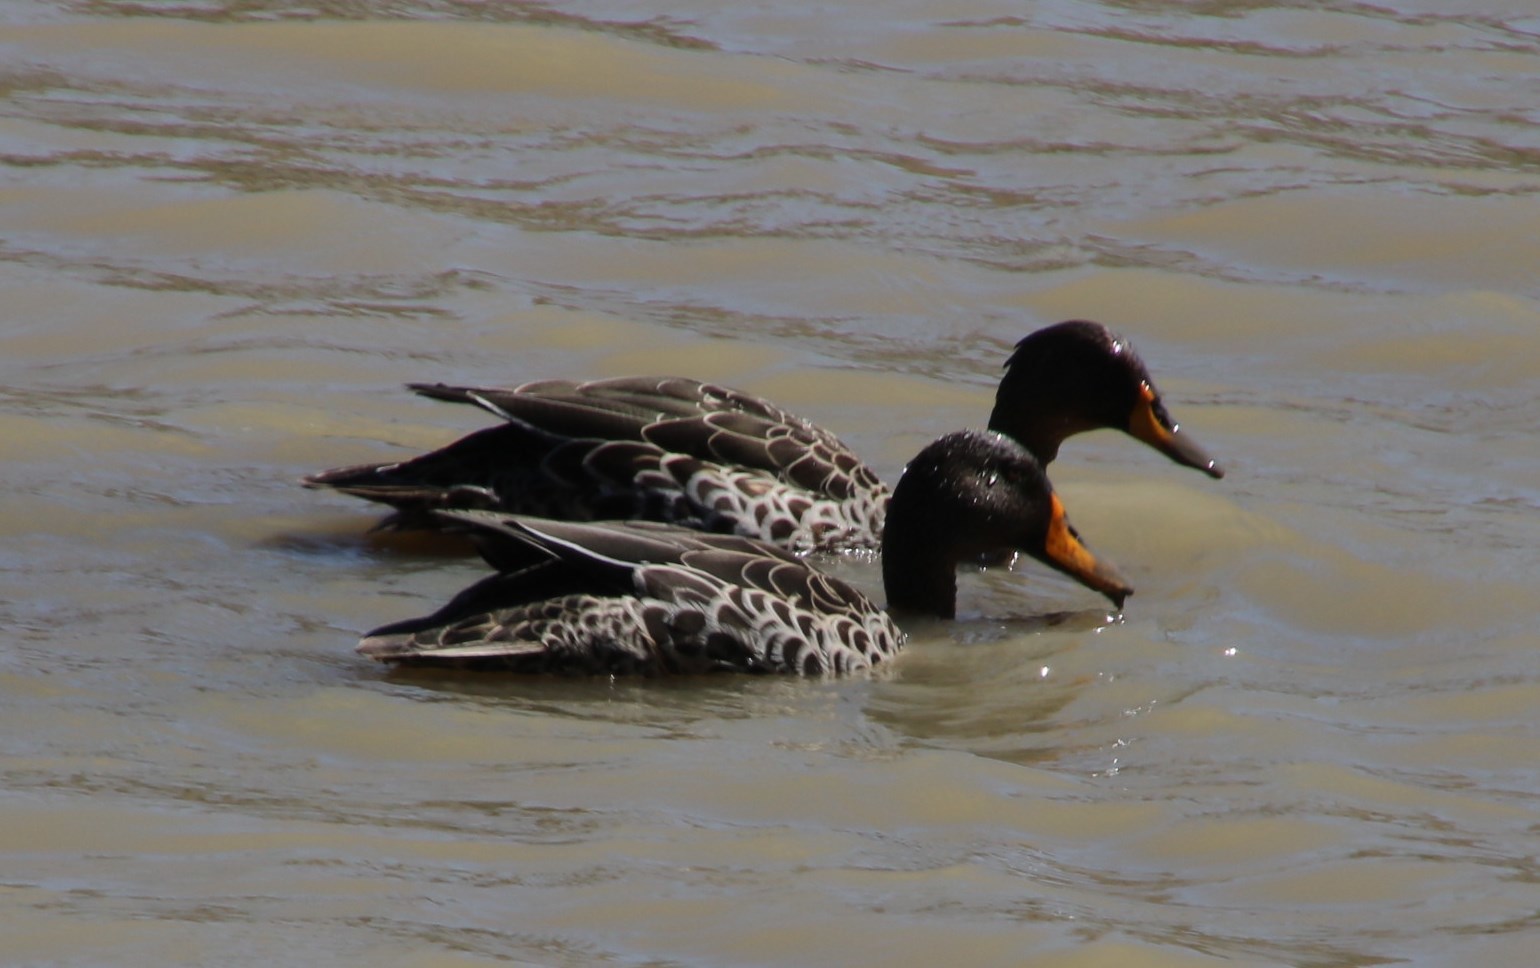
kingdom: Animalia
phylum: Chordata
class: Aves
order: Anseriformes
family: Anatidae
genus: Anas
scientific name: Anas undulata
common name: Yellow-billed duck
